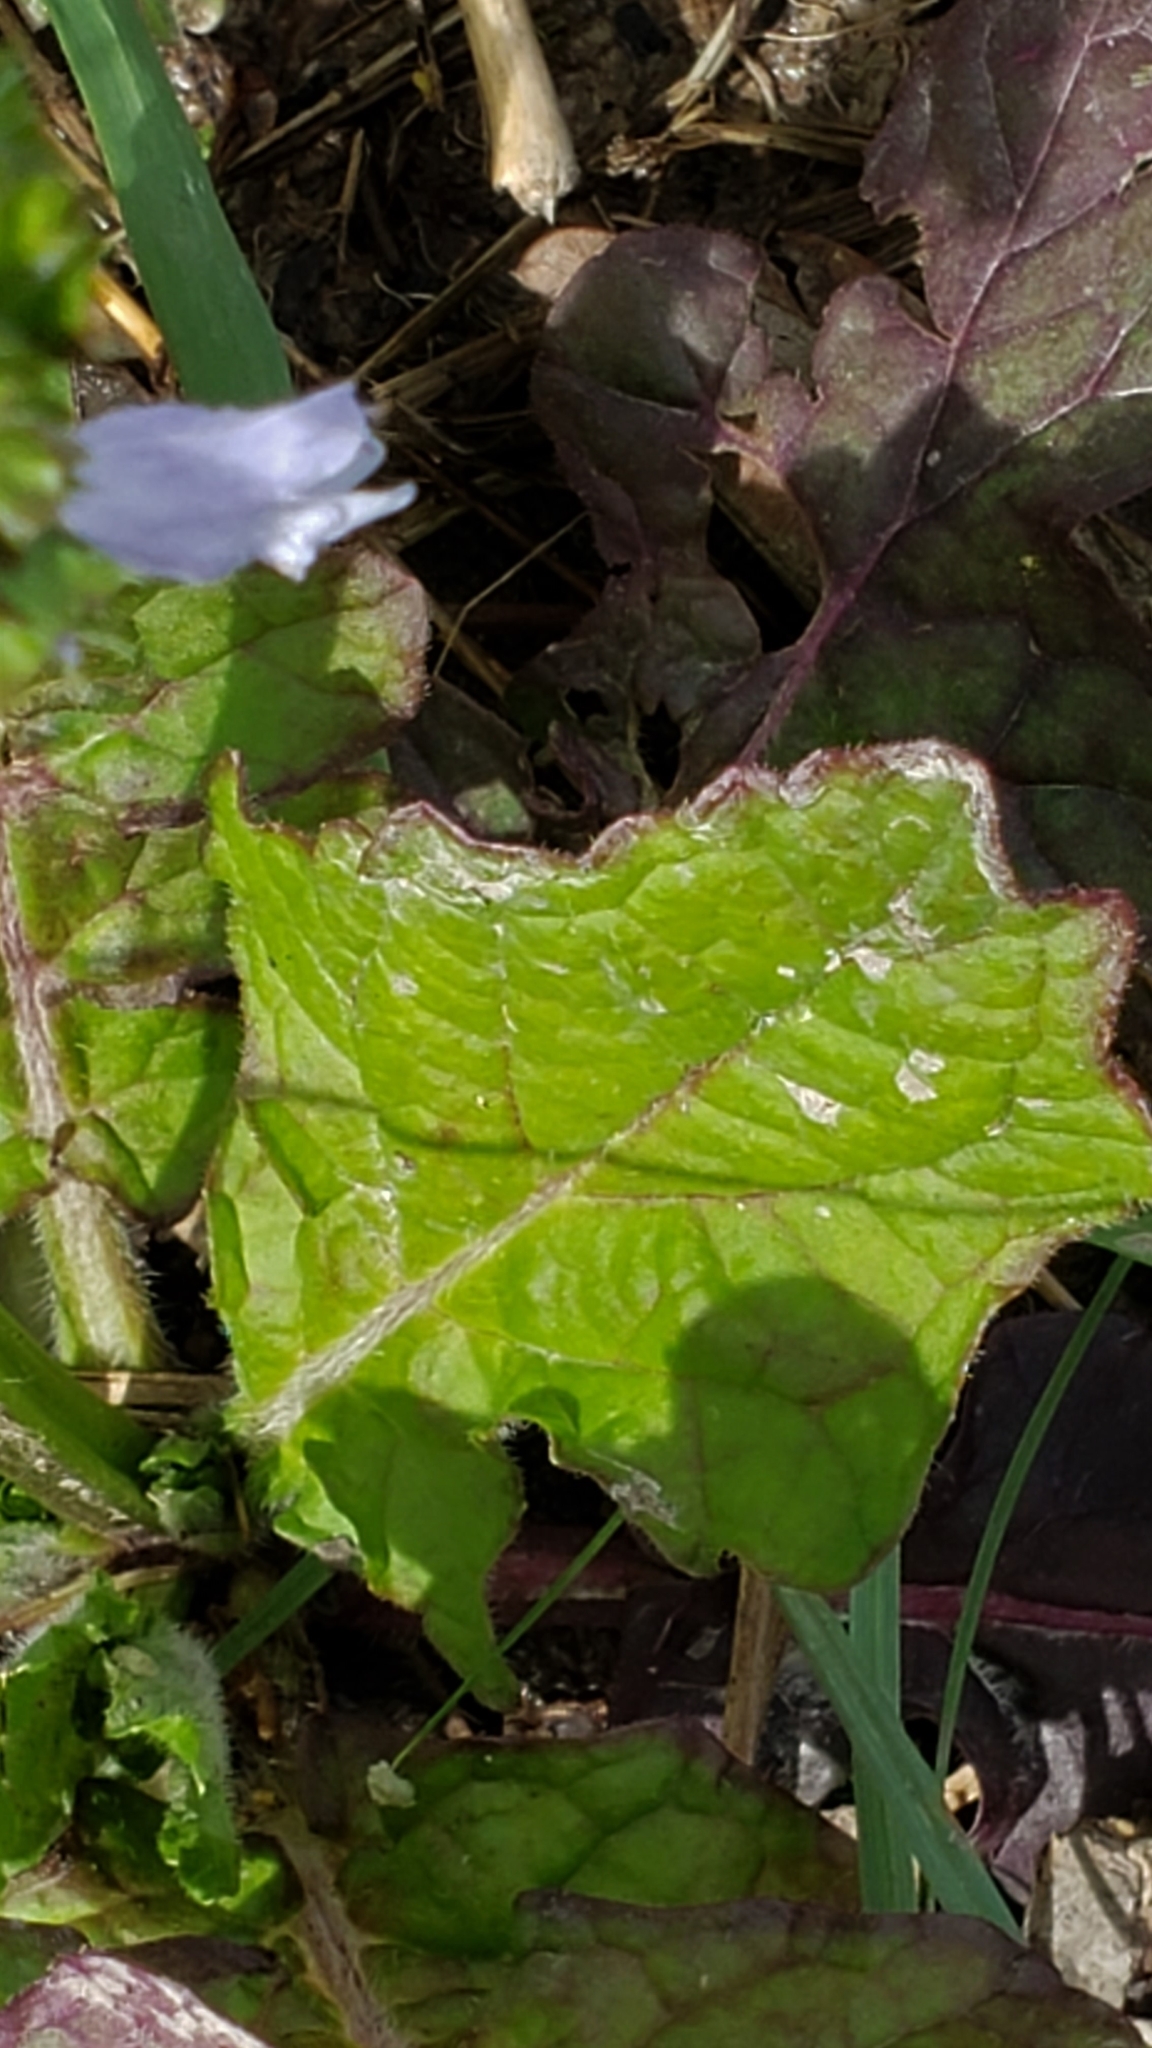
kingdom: Plantae
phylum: Tracheophyta
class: Magnoliopsida
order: Lamiales
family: Lamiaceae
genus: Salvia
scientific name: Salvia lyrata
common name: Cancerweed
